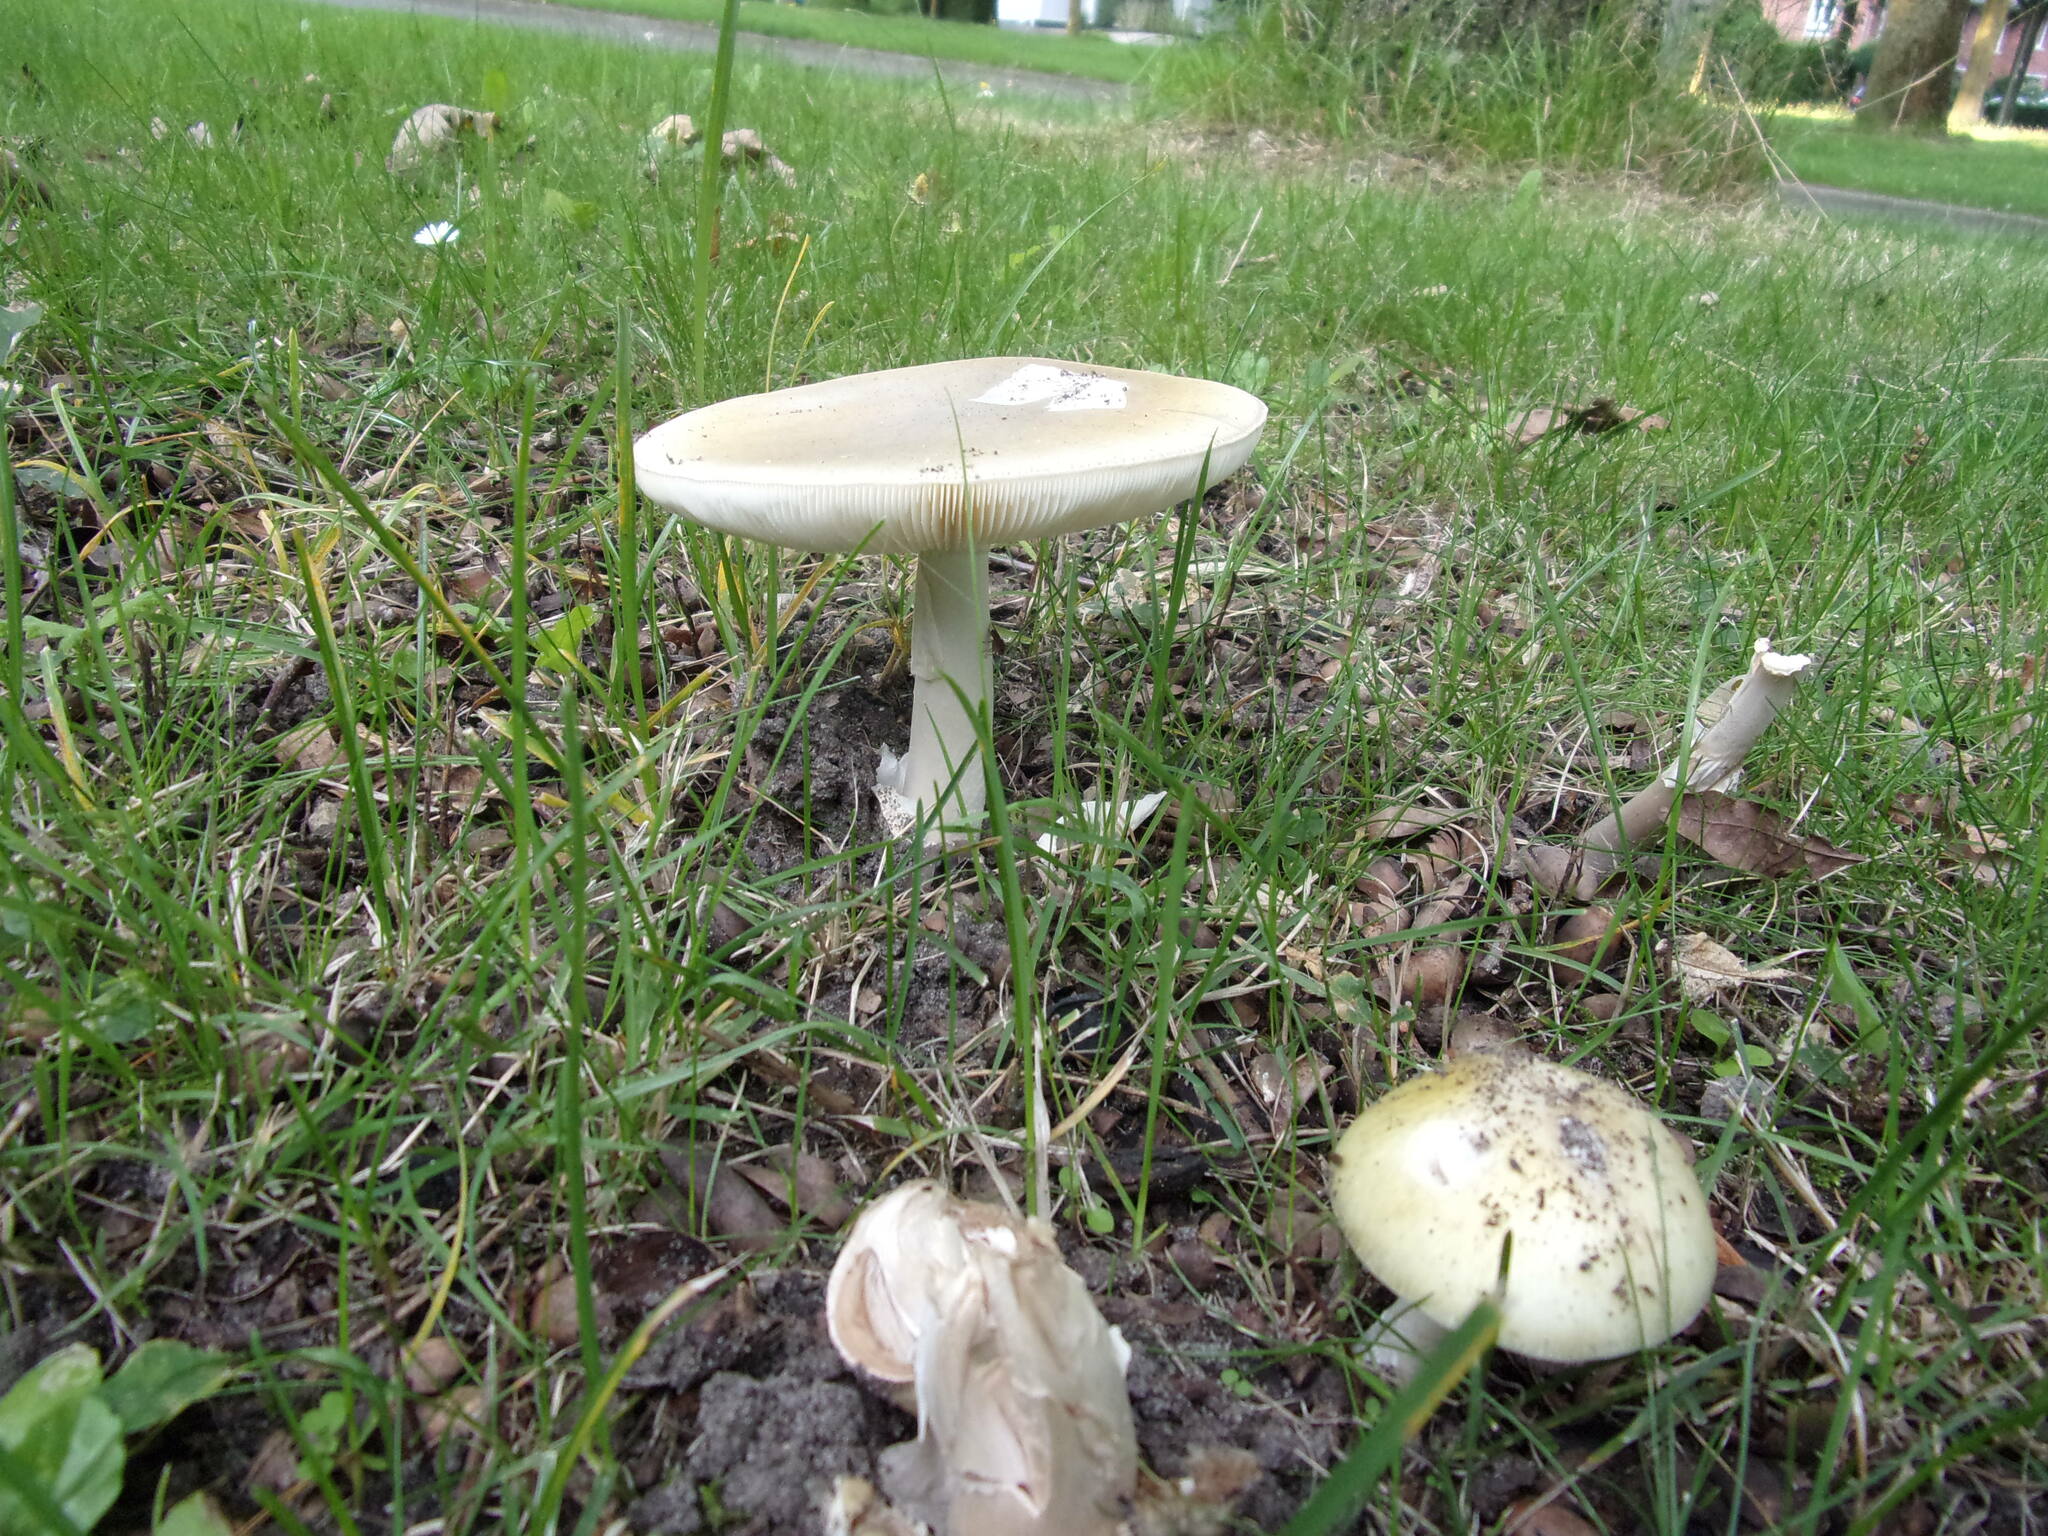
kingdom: Fungi
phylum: Basidiomycota
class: Agaricomycetes
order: Agaricales
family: Amanitaceae
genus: Amanita
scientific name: Amanita phalloides
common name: Death cap
